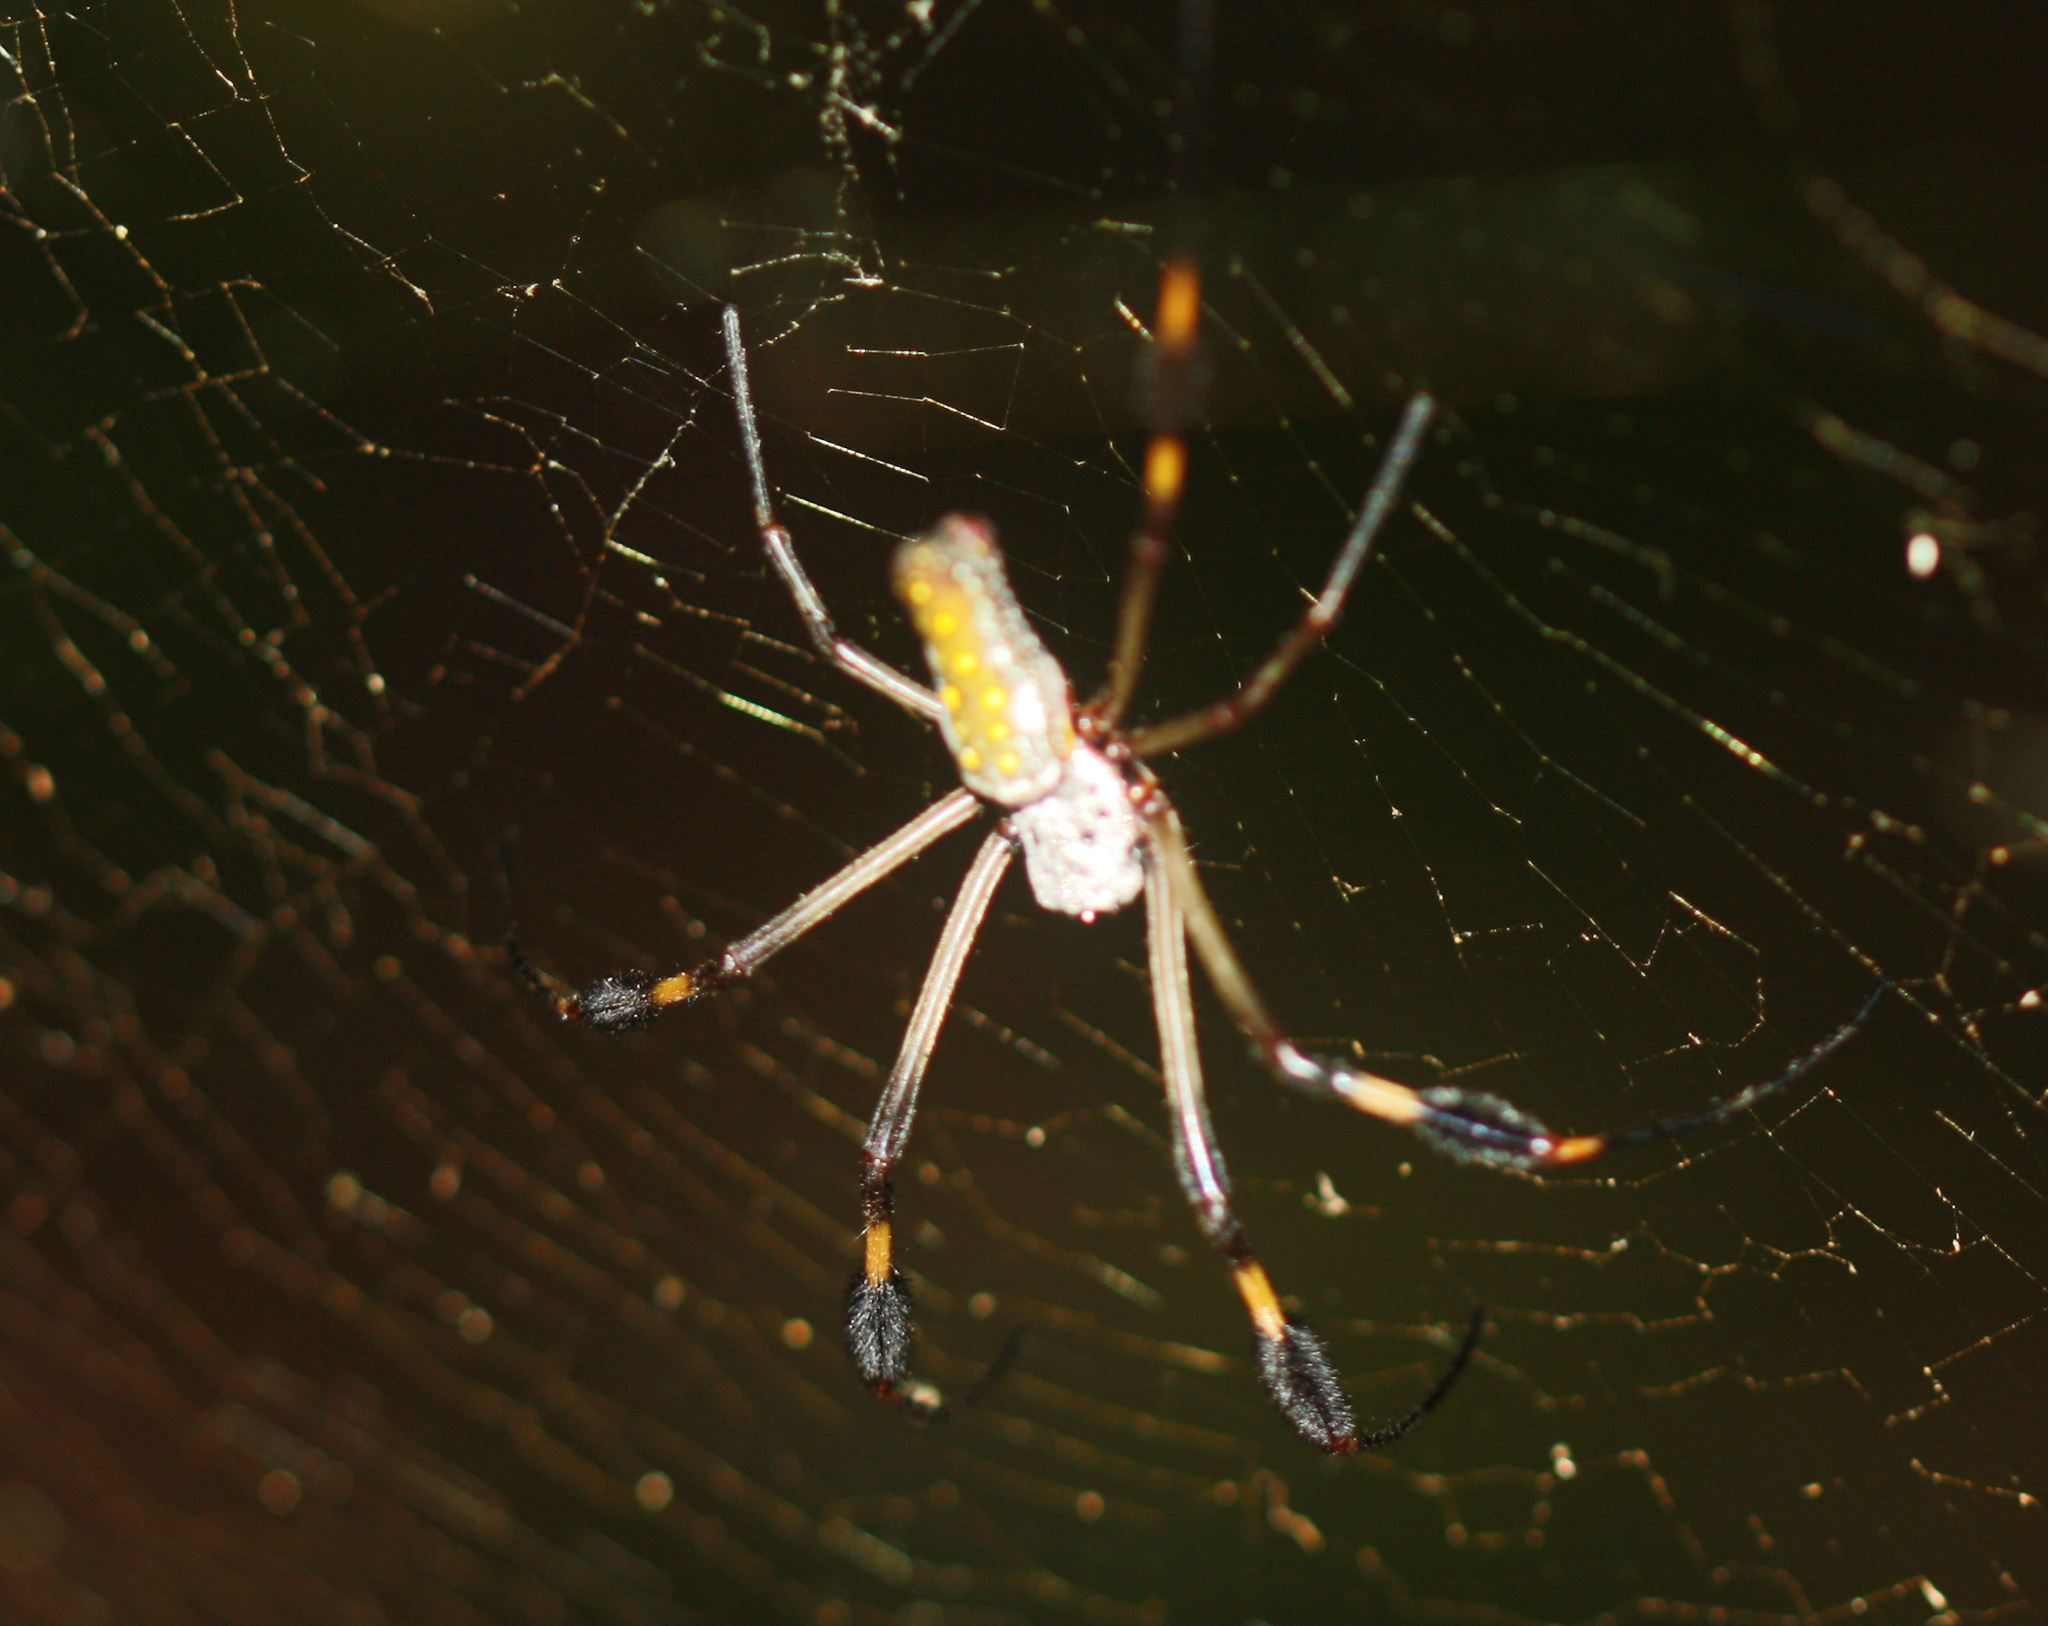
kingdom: Animalia
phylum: Arthropoda
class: Arachnida
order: Araneae
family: Araneidae
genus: Trichonephila
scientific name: Trichonephila clavipes
